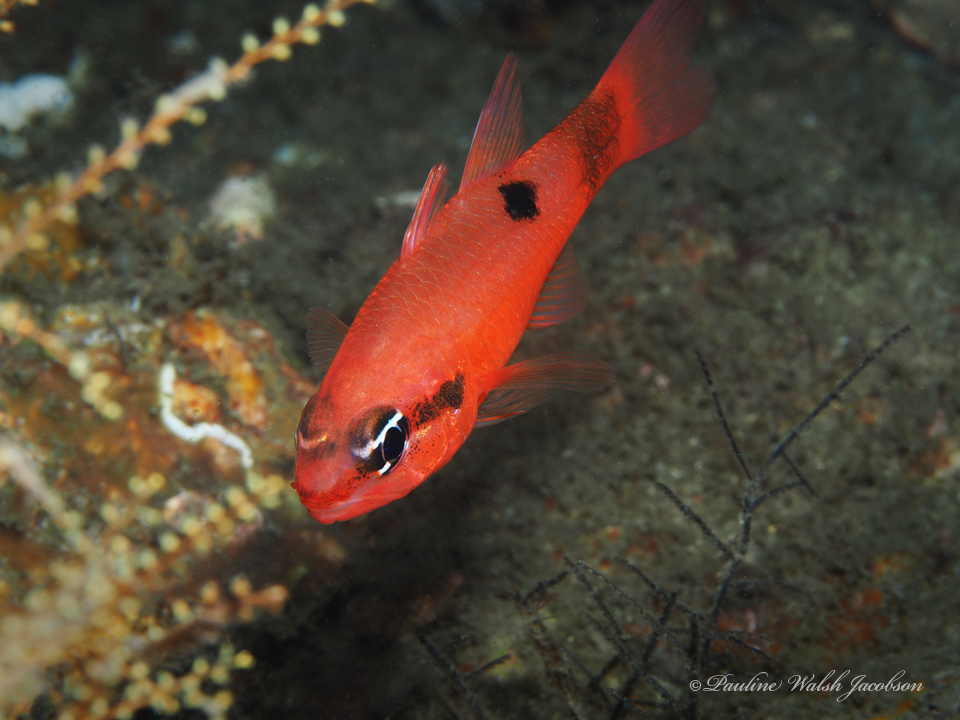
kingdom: Animalia
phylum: Chordata
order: Perciformes
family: Apogonidae
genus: Apogon
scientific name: Apogon maculatus
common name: Flamefish
